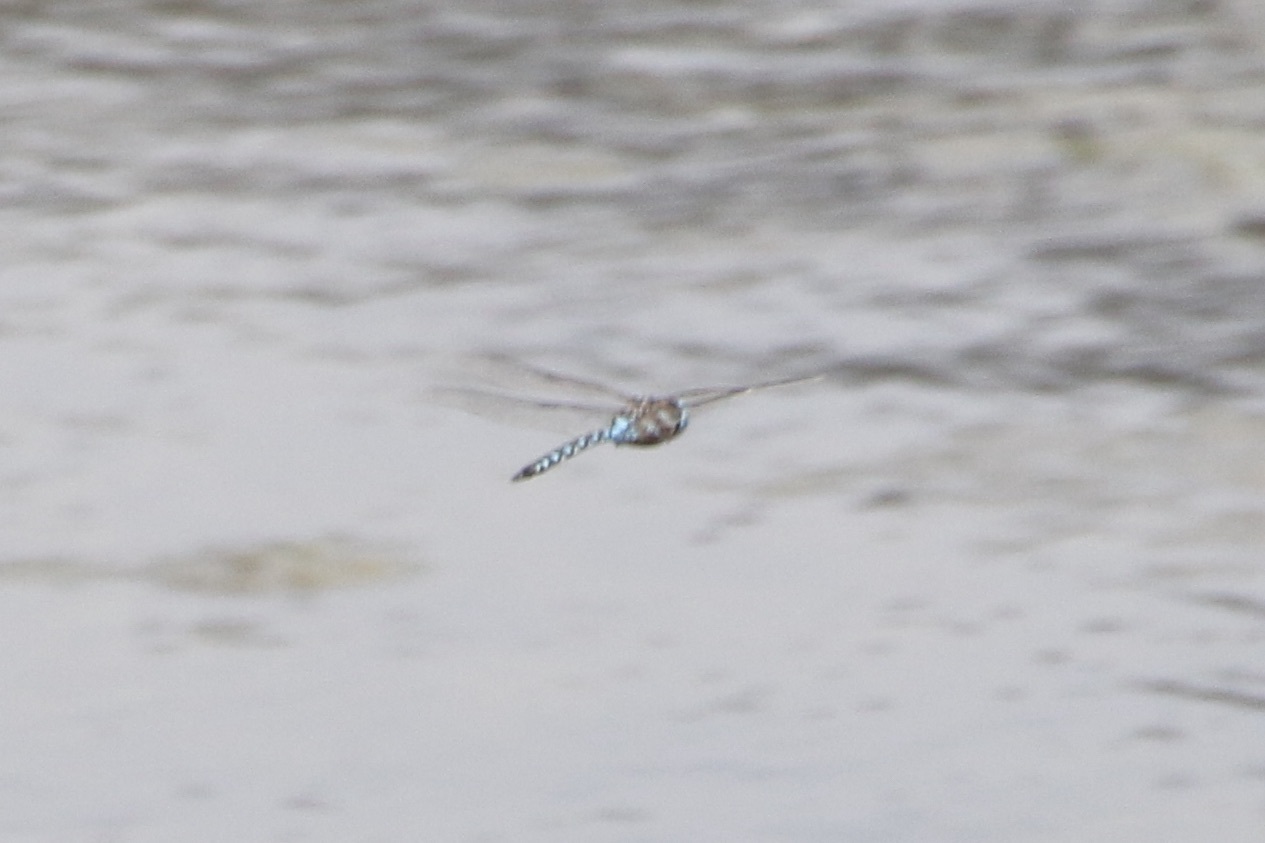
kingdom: Animalia
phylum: Arthropoda
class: Insecta
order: Odonata
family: Aeshnidae
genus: Rhionaeschna
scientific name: Rhionaeschna multicolor
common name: Blue-eyed darner
